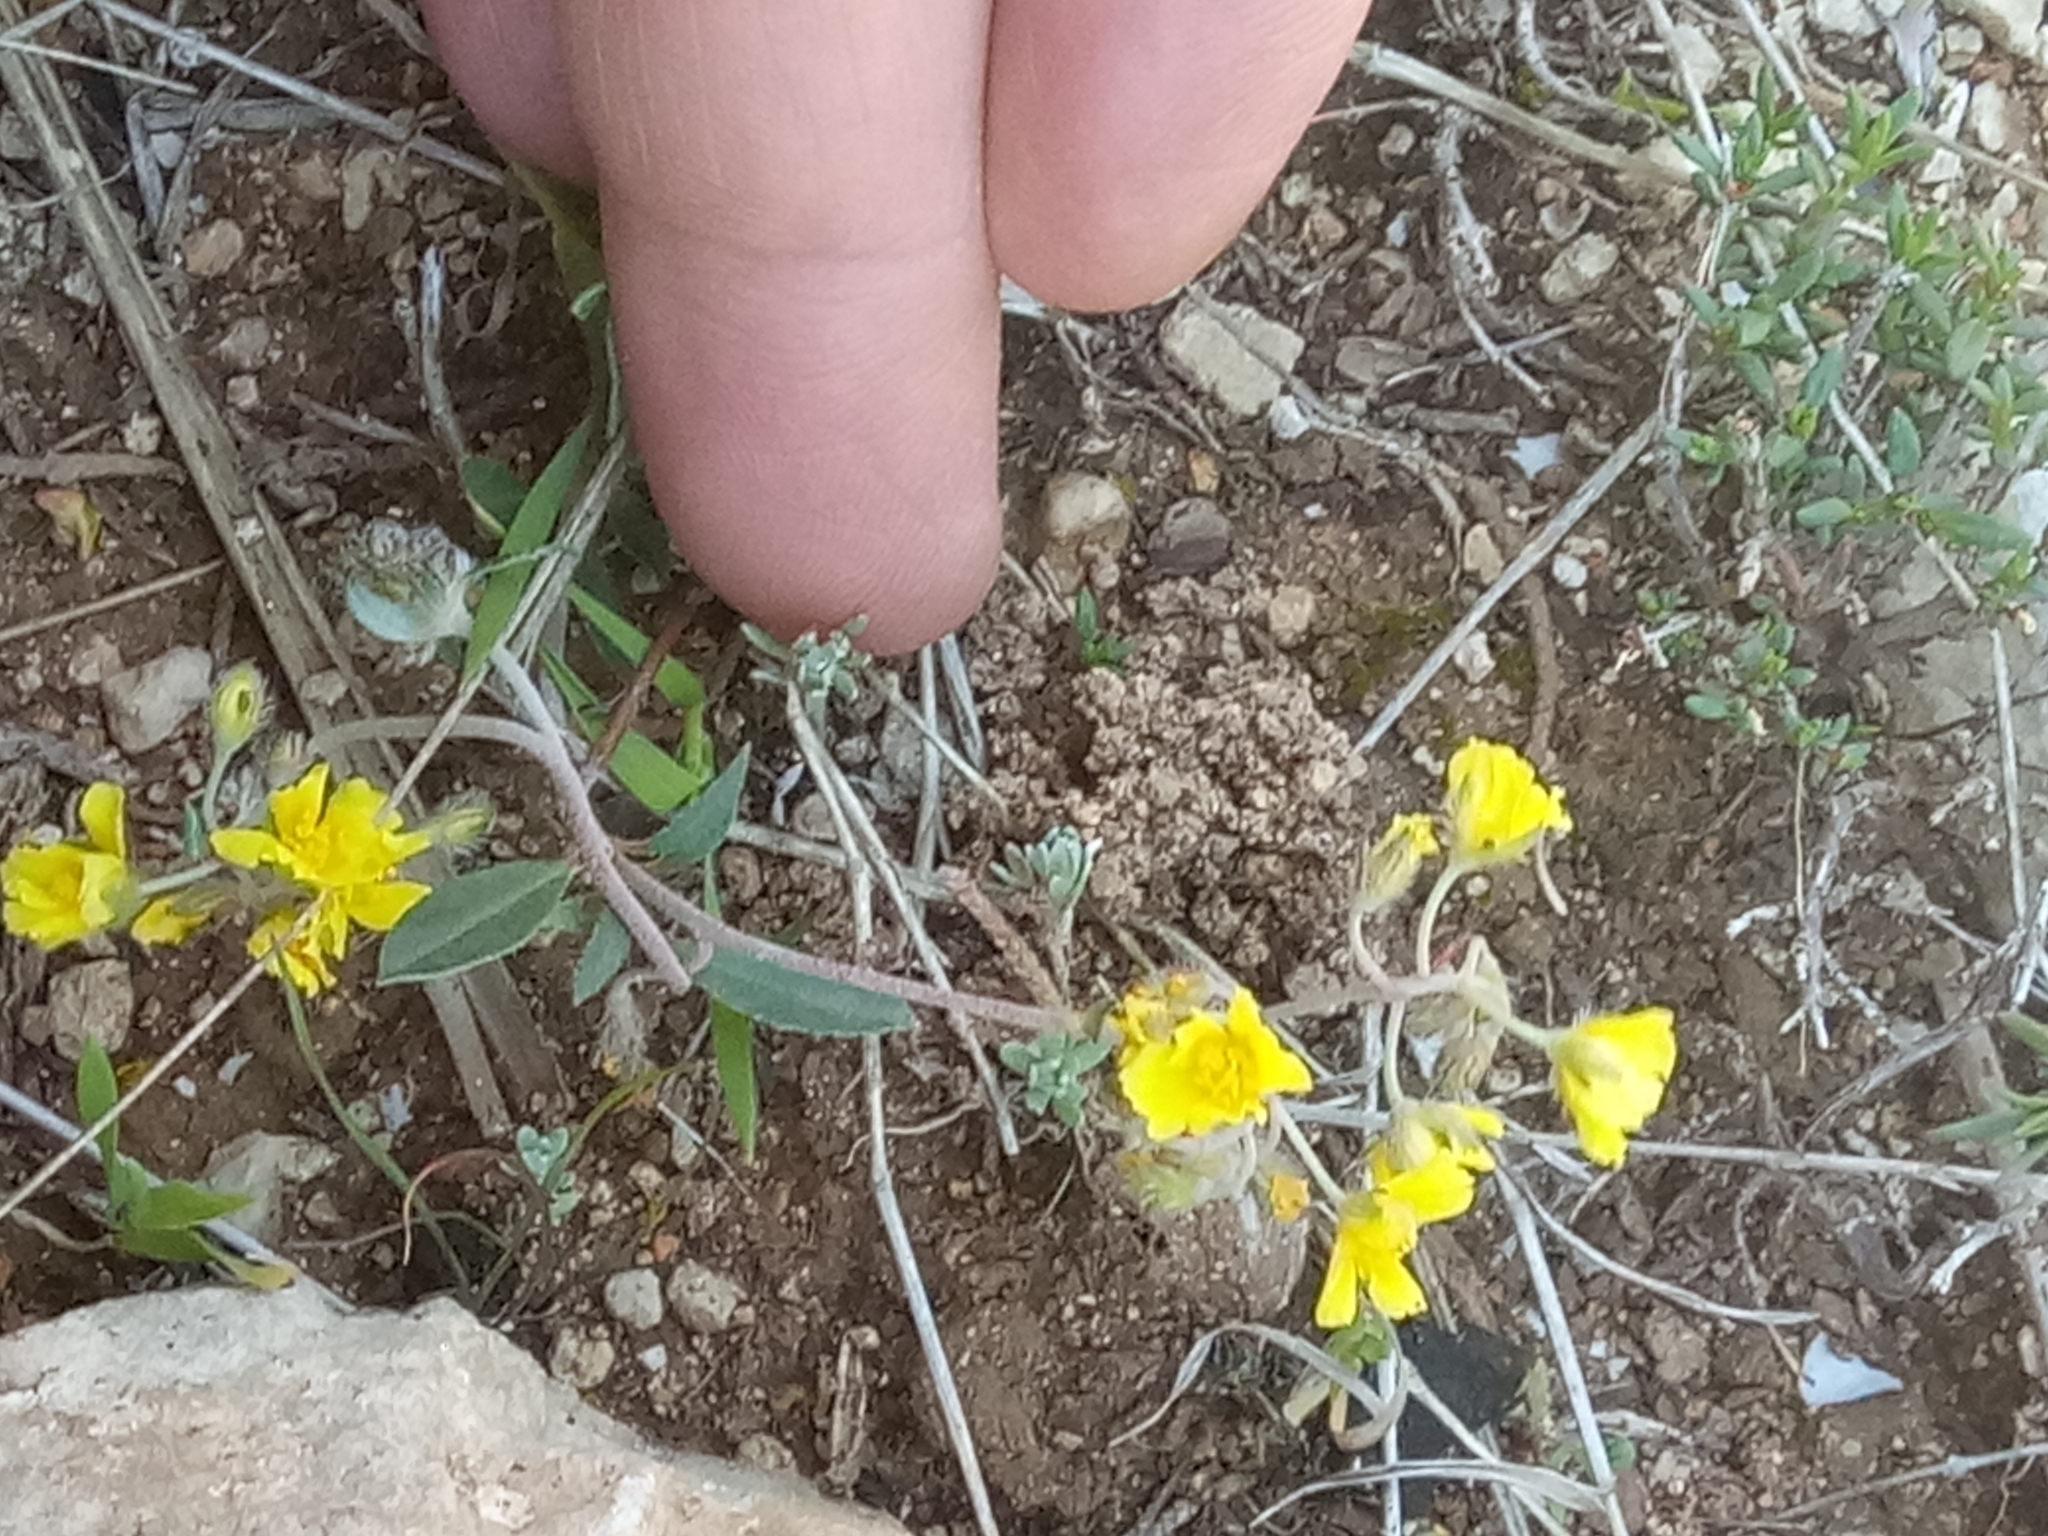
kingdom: Plantae
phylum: Tracheophyta
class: Magnoliopsida
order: Malvales
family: Cistaceae
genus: Helianthemum
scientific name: Helianthemum cinereum
